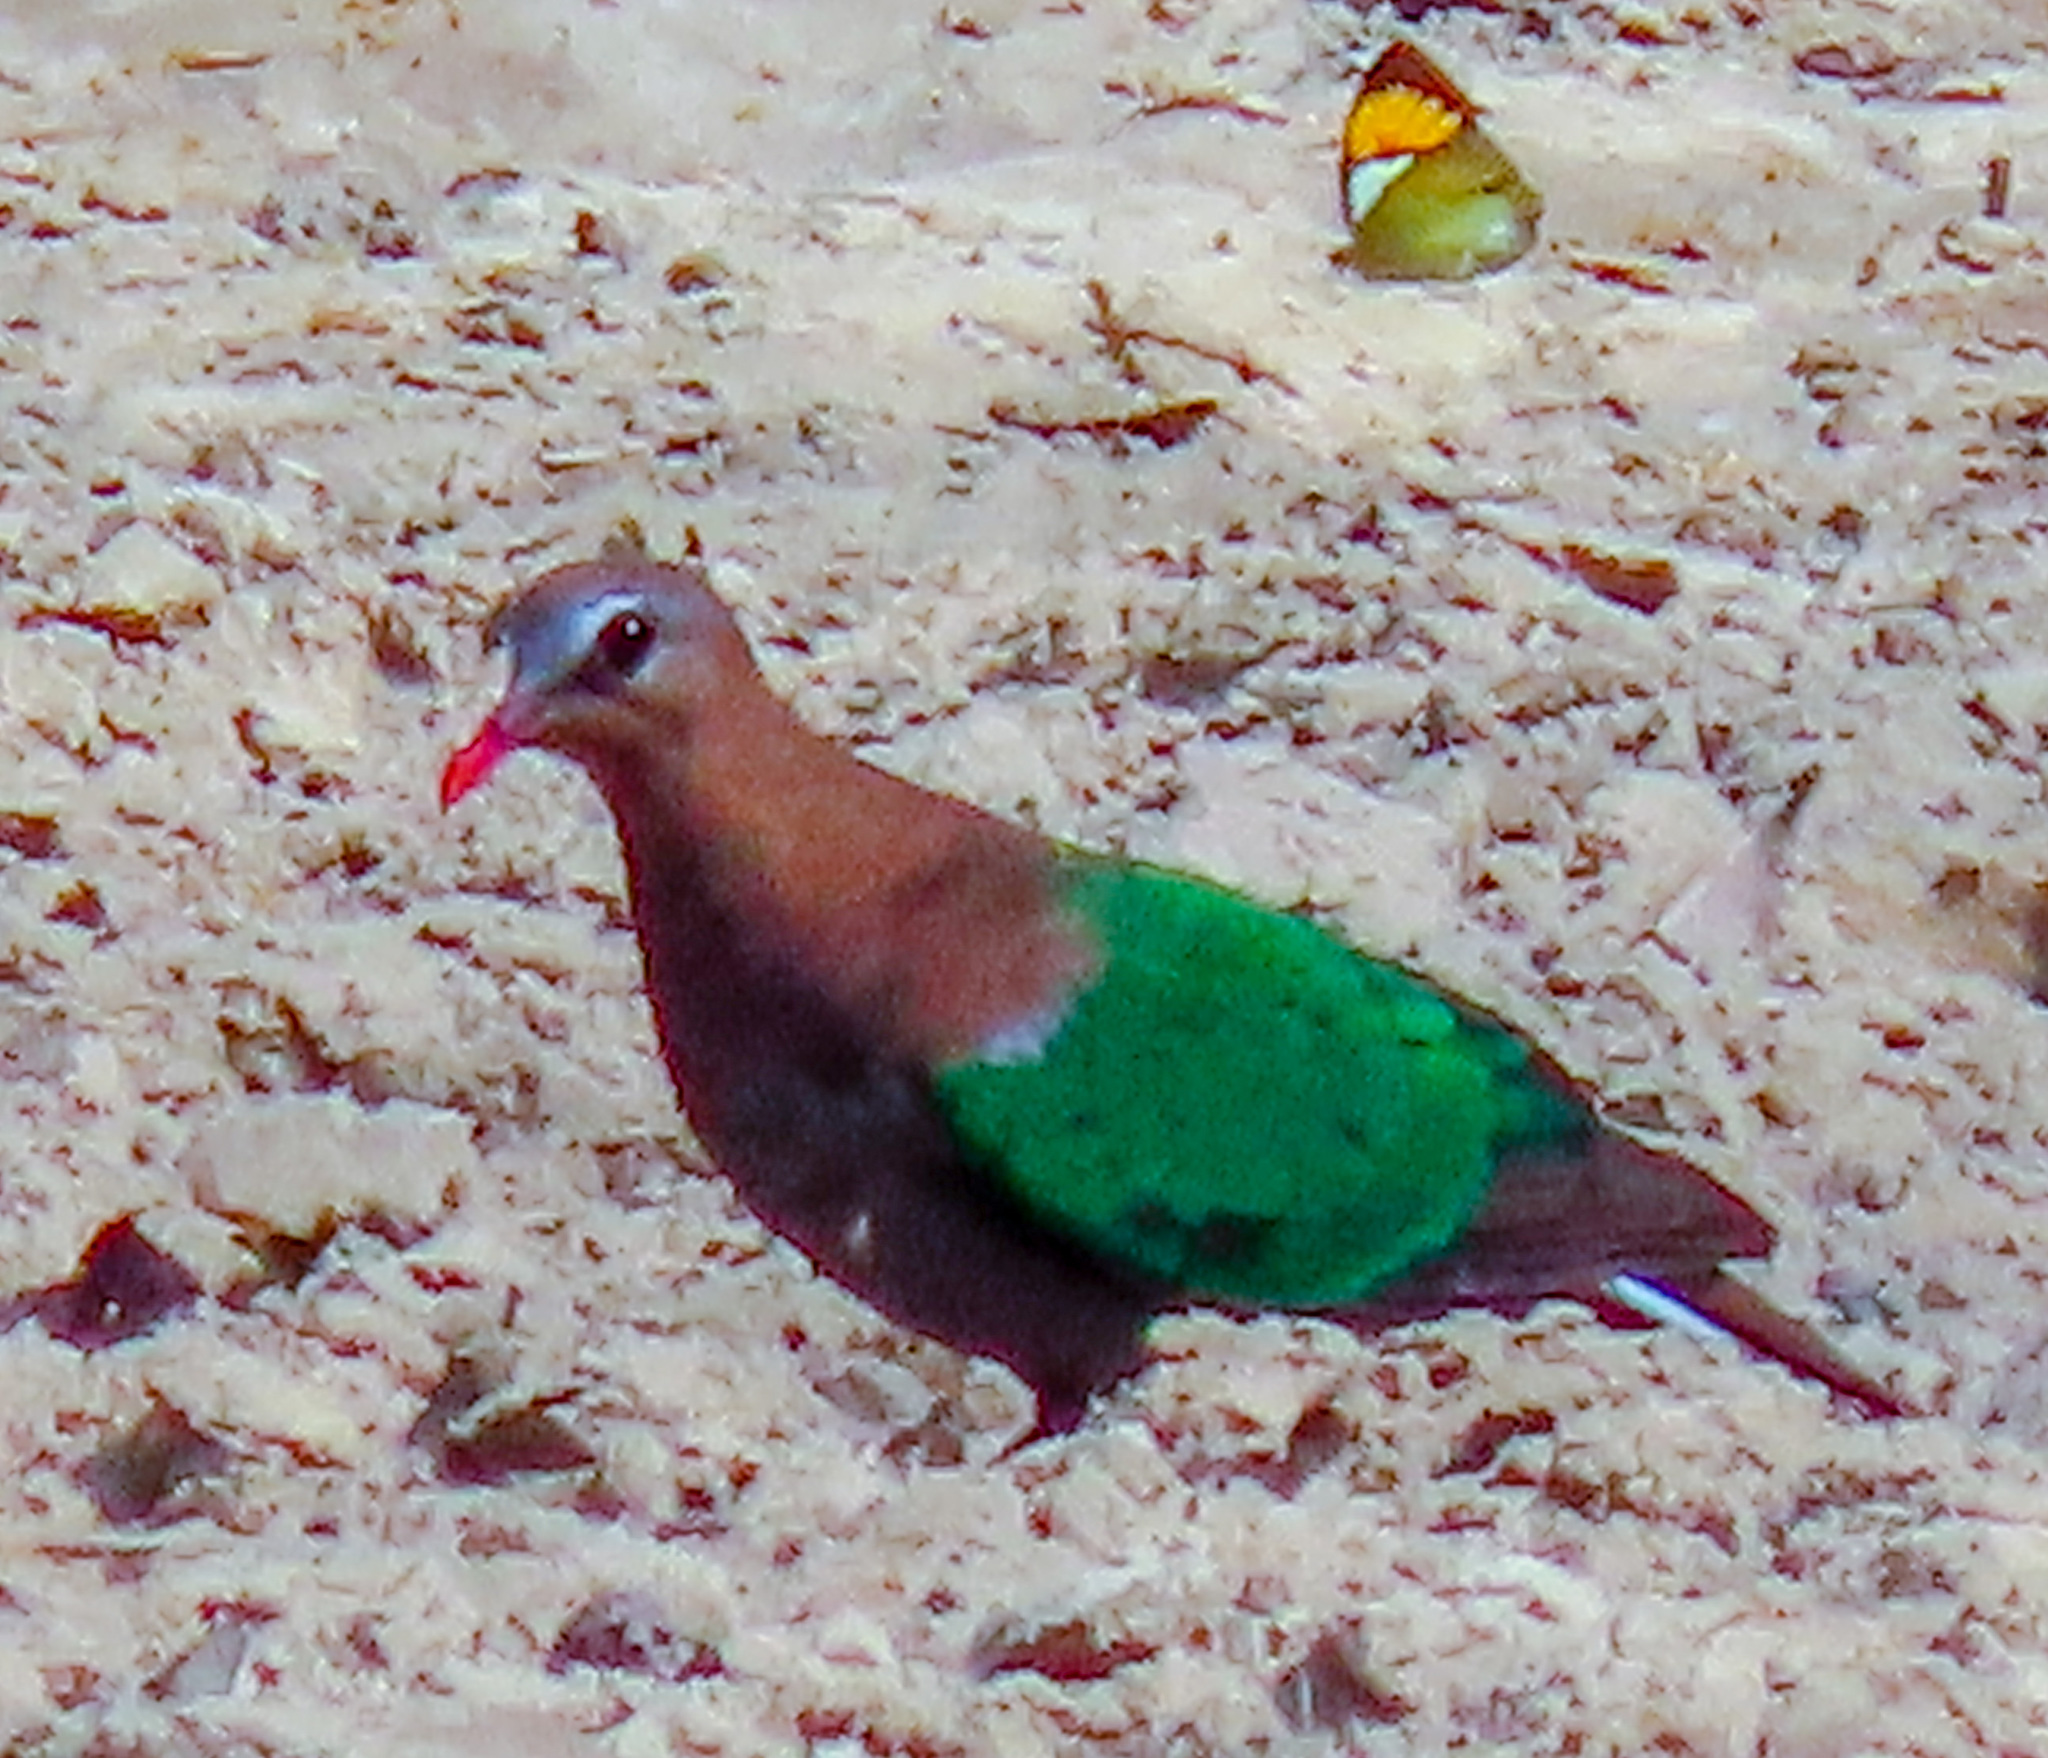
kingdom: Animalia
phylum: Chordata
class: Aves
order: Columbiformes
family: Columbidae
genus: Chalcophaps
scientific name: Chalcophaps indica
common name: Common emerald dove
